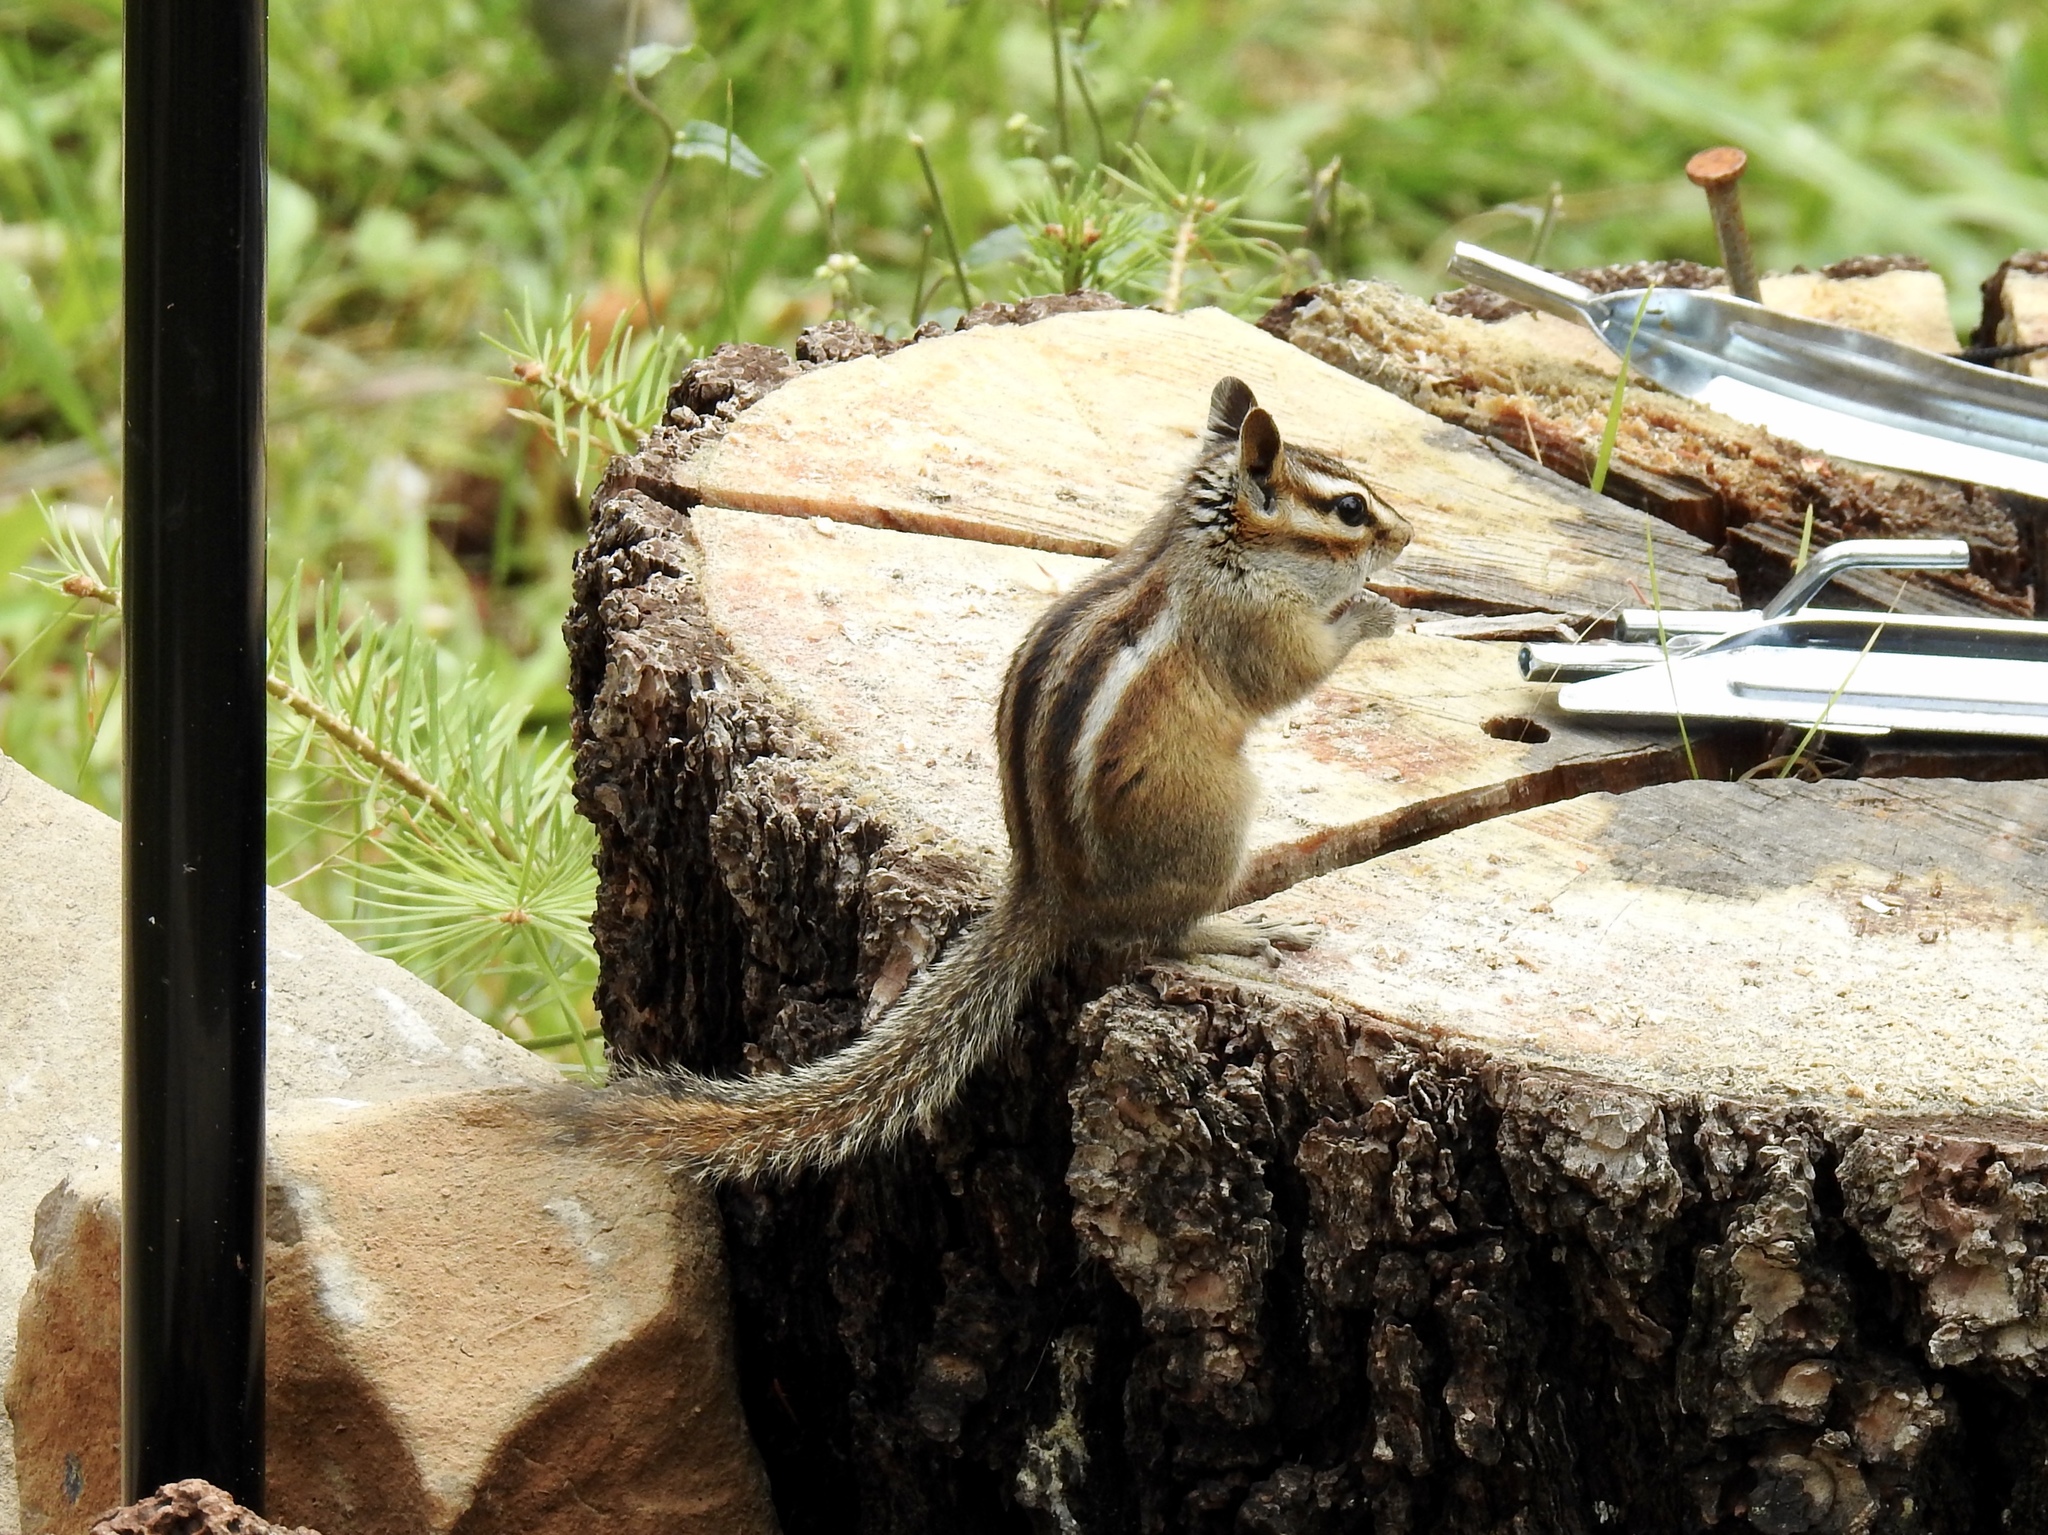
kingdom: Animalia
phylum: Chordata
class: Mammalia
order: Rodentia
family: Sciuridae
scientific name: Sciuridae
